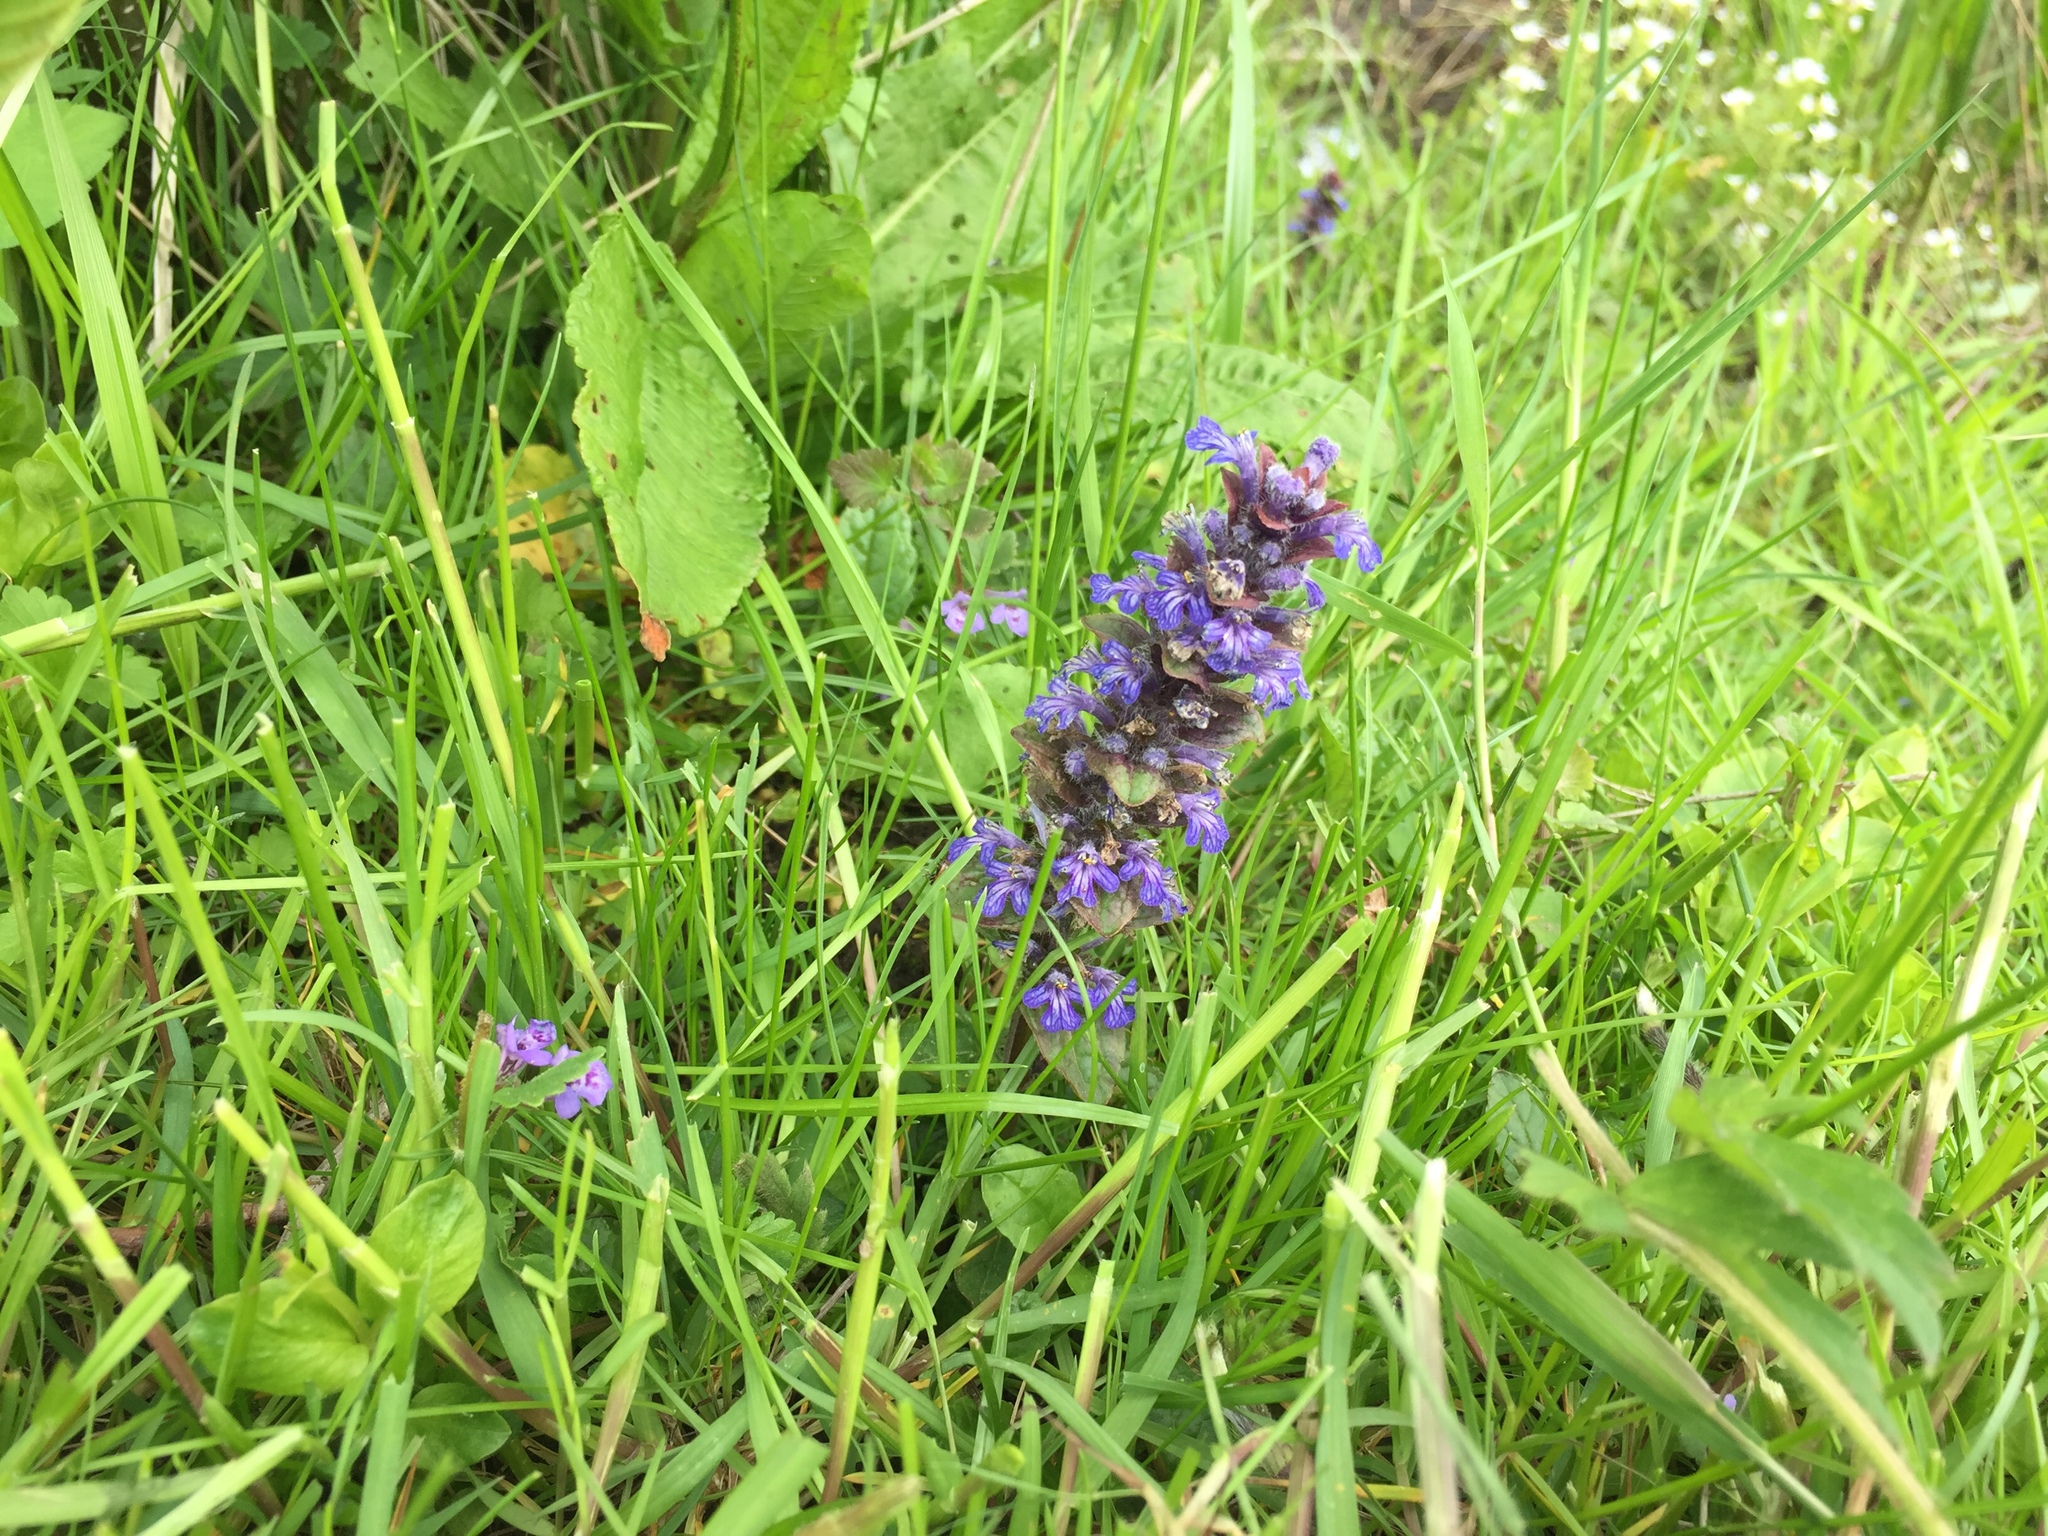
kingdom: Plantae
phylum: Tracheophyta
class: Magnoliopsida
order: Lamiales
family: Lamiaceae
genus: Ajuga
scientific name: Ajuga reptans
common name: Bugle
